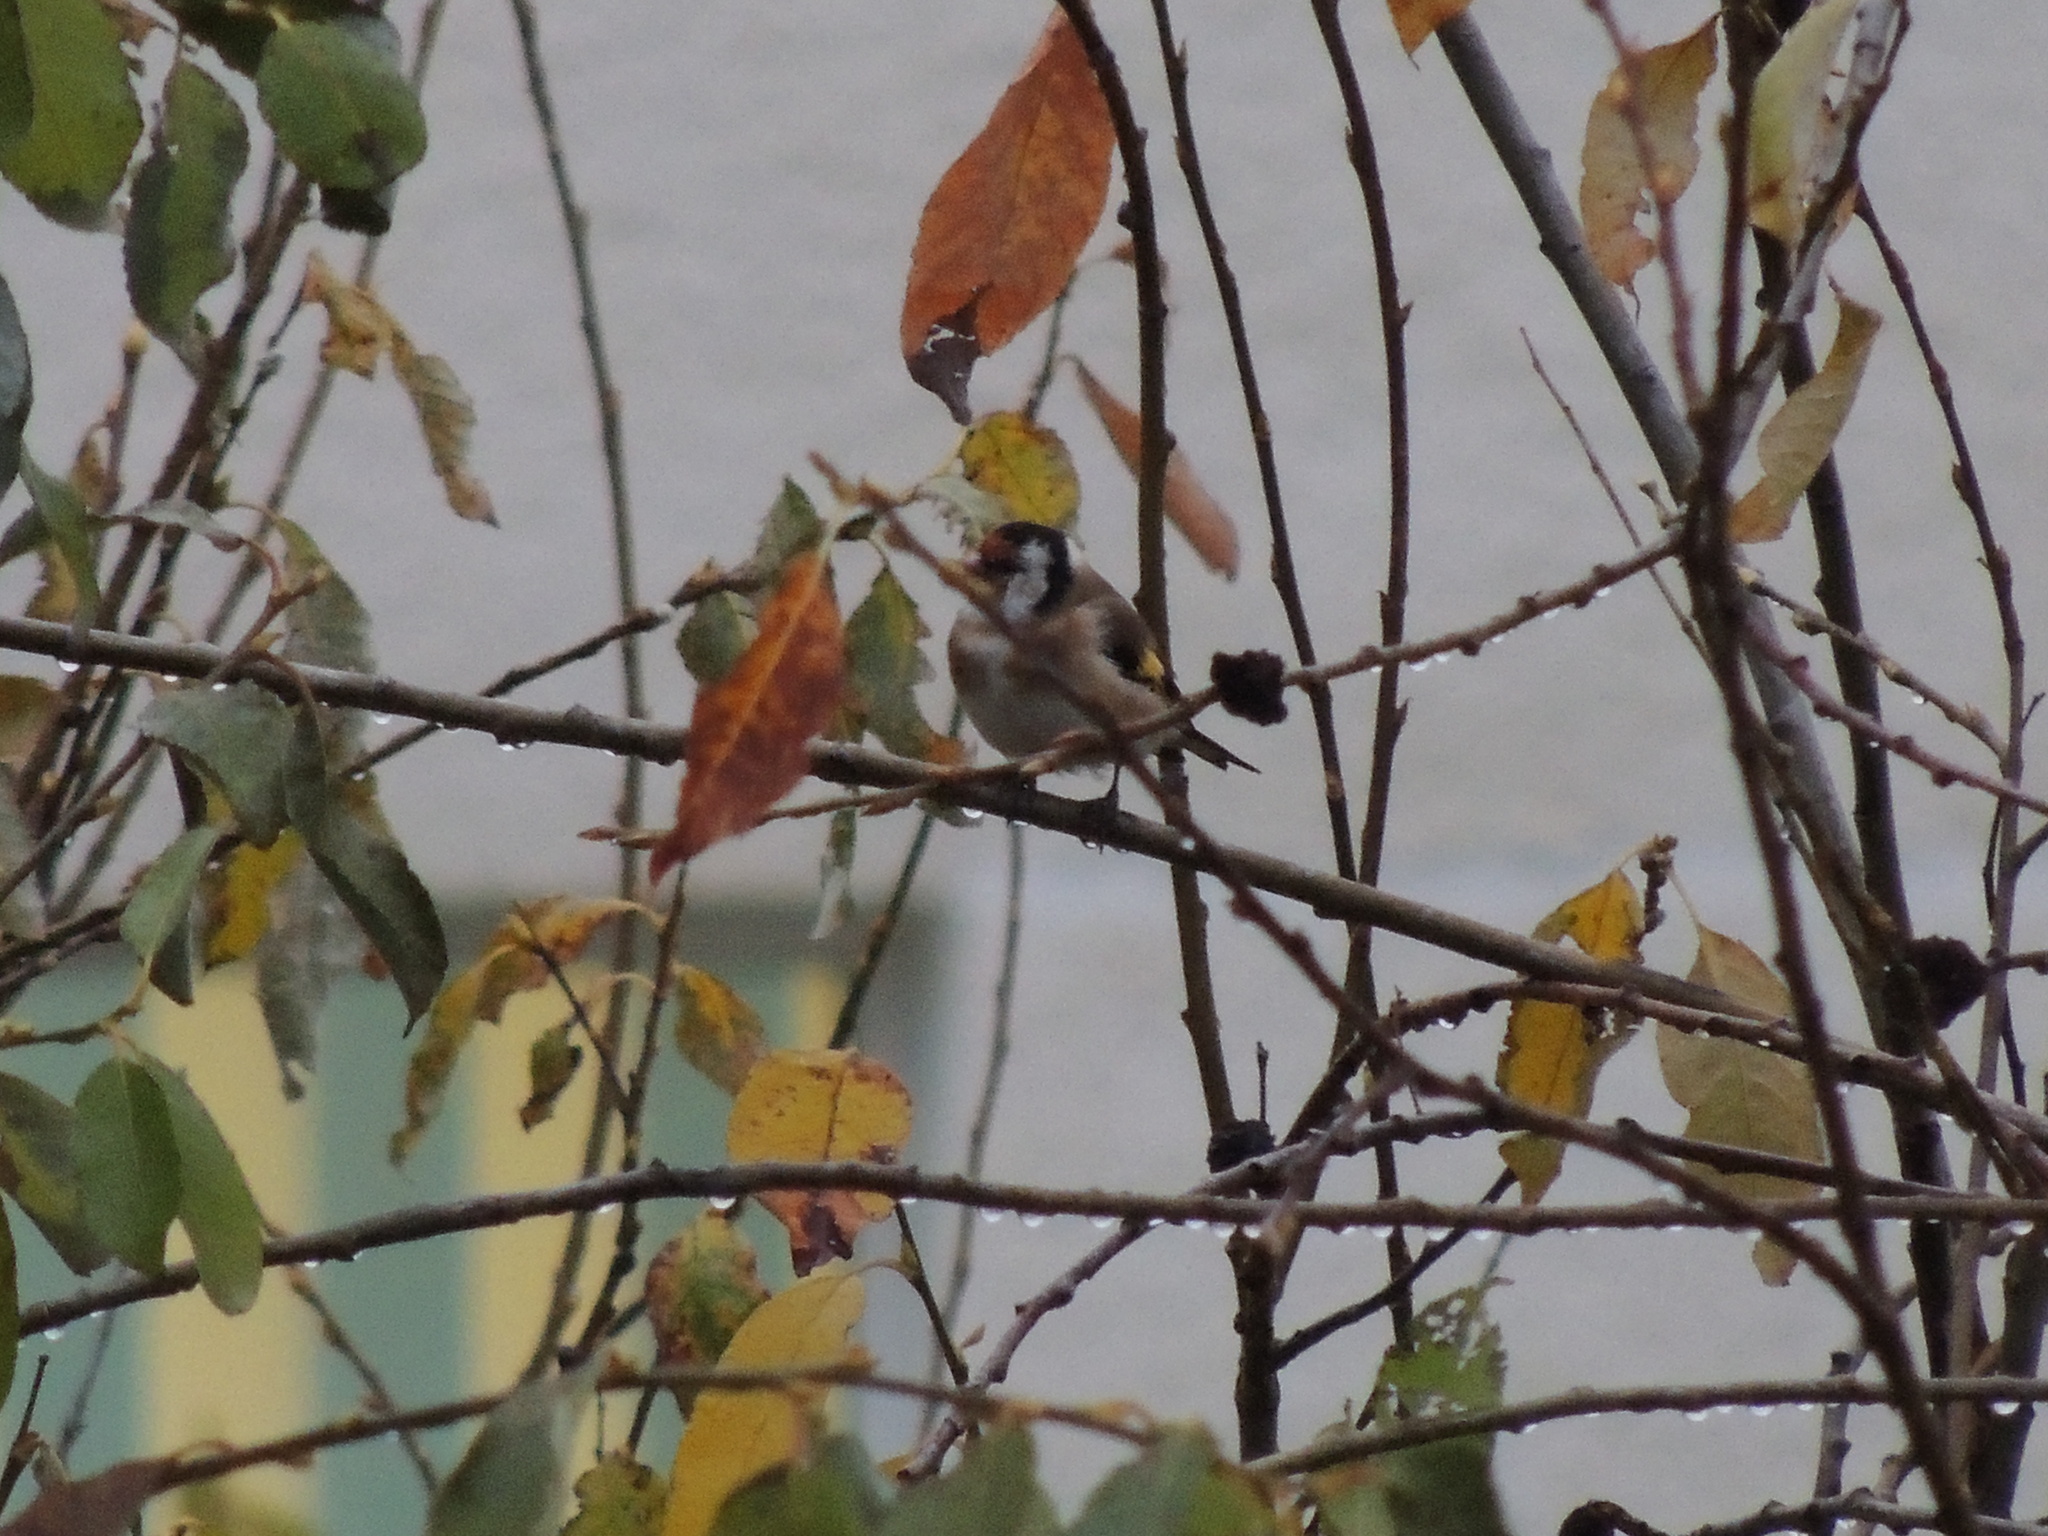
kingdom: Animalia
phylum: Chordata
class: Aves
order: Passeriformes
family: Fringillidae
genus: Carduelis
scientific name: Carduelis carduelis
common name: European goldfinch
